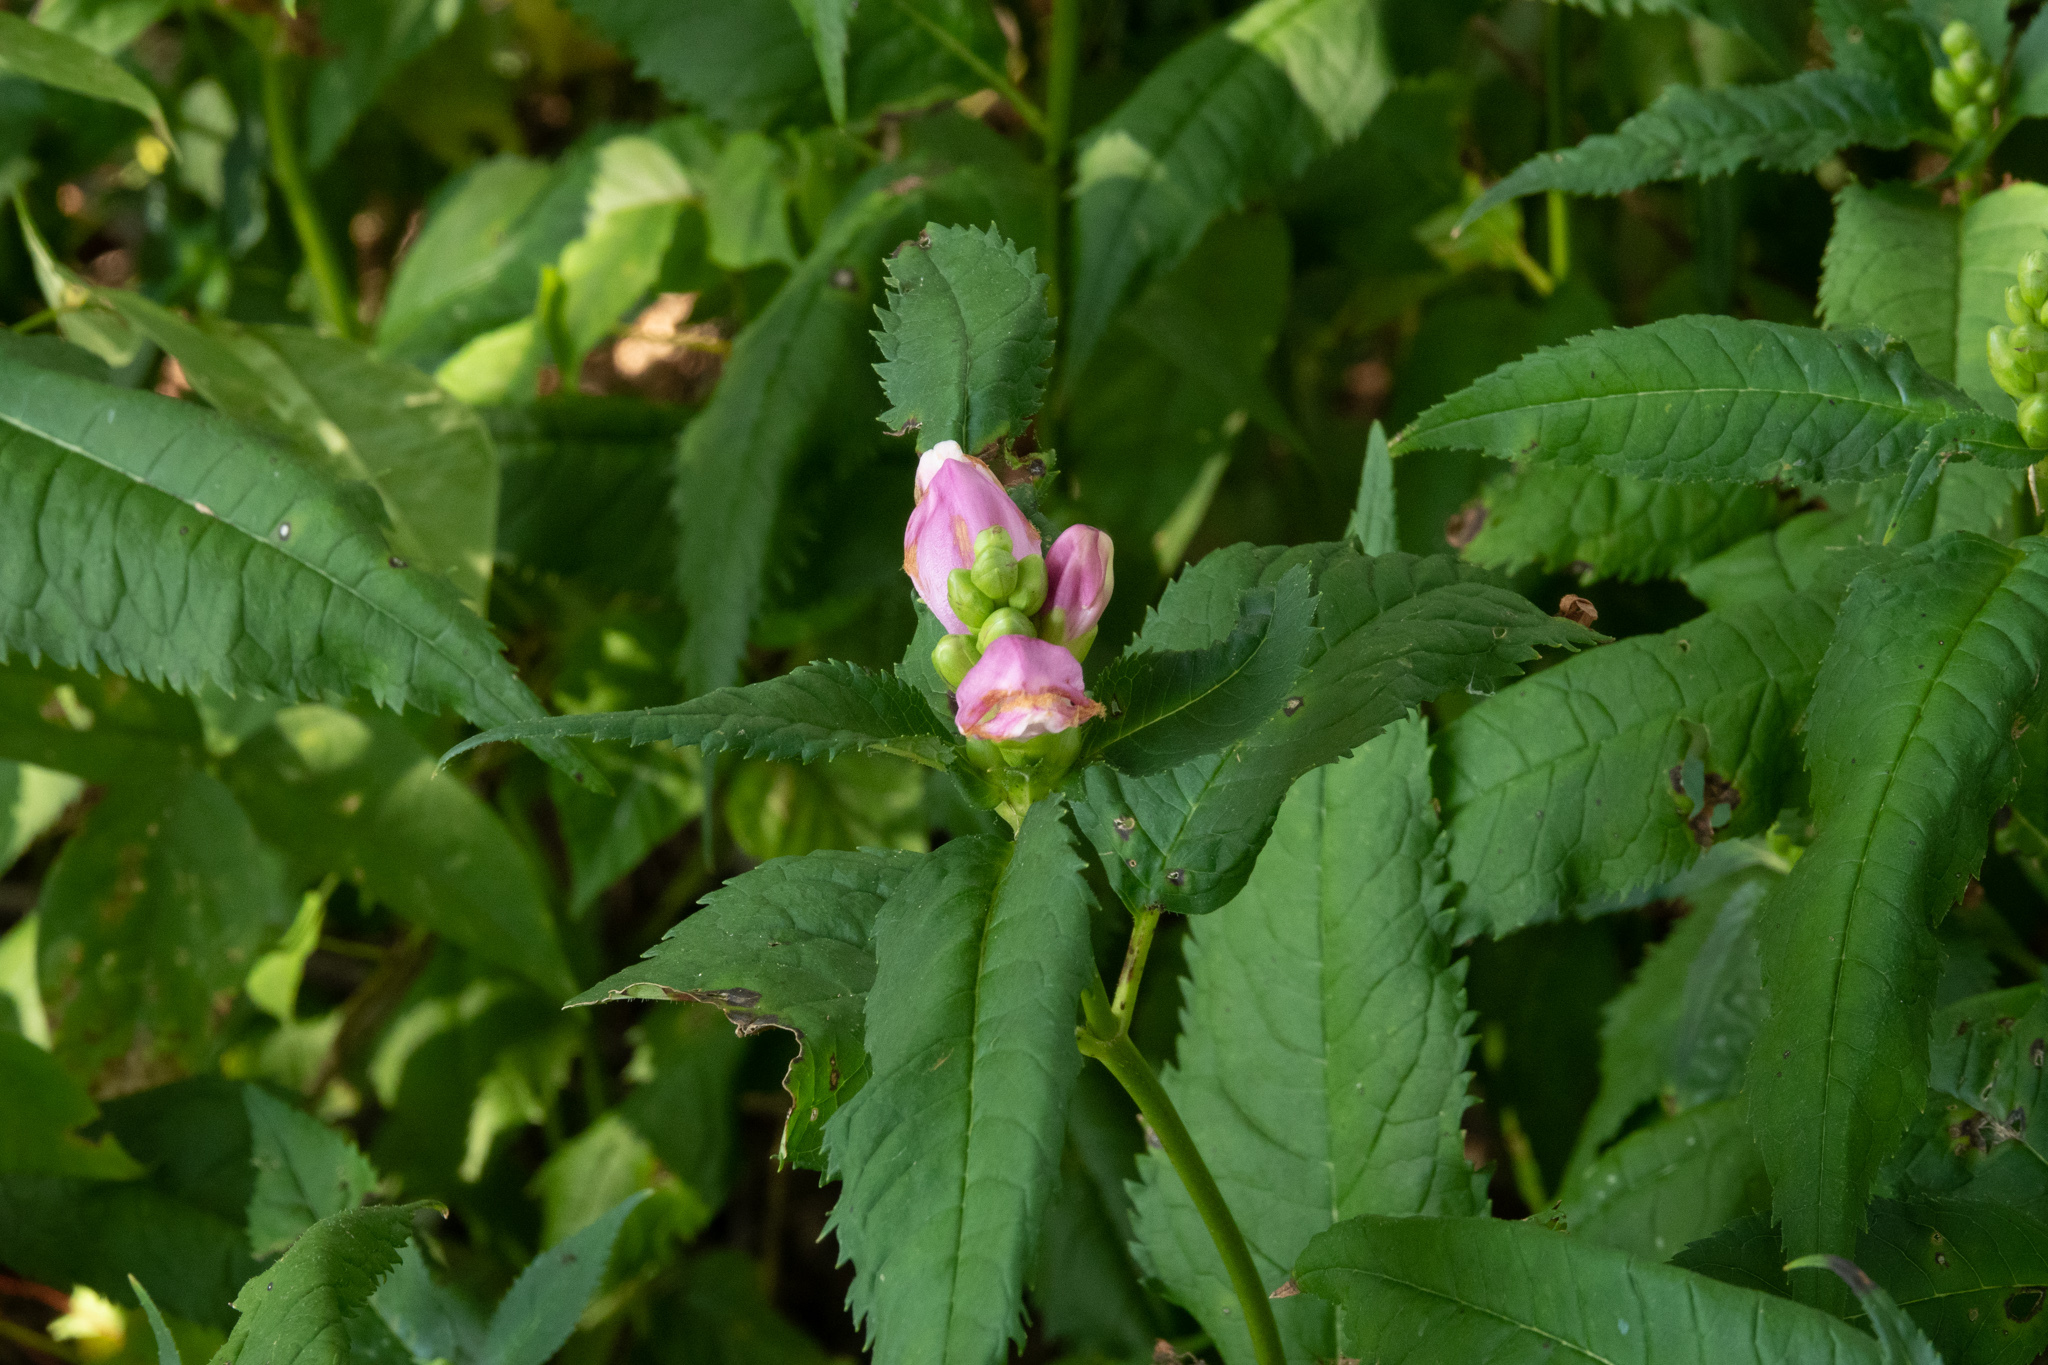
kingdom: Plantae
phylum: Tracheophyta
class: Magnoliopsida
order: Lamiales
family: Plantaginaceae
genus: Chelone
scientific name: Chelone lyonii
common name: Pink turtlehead
